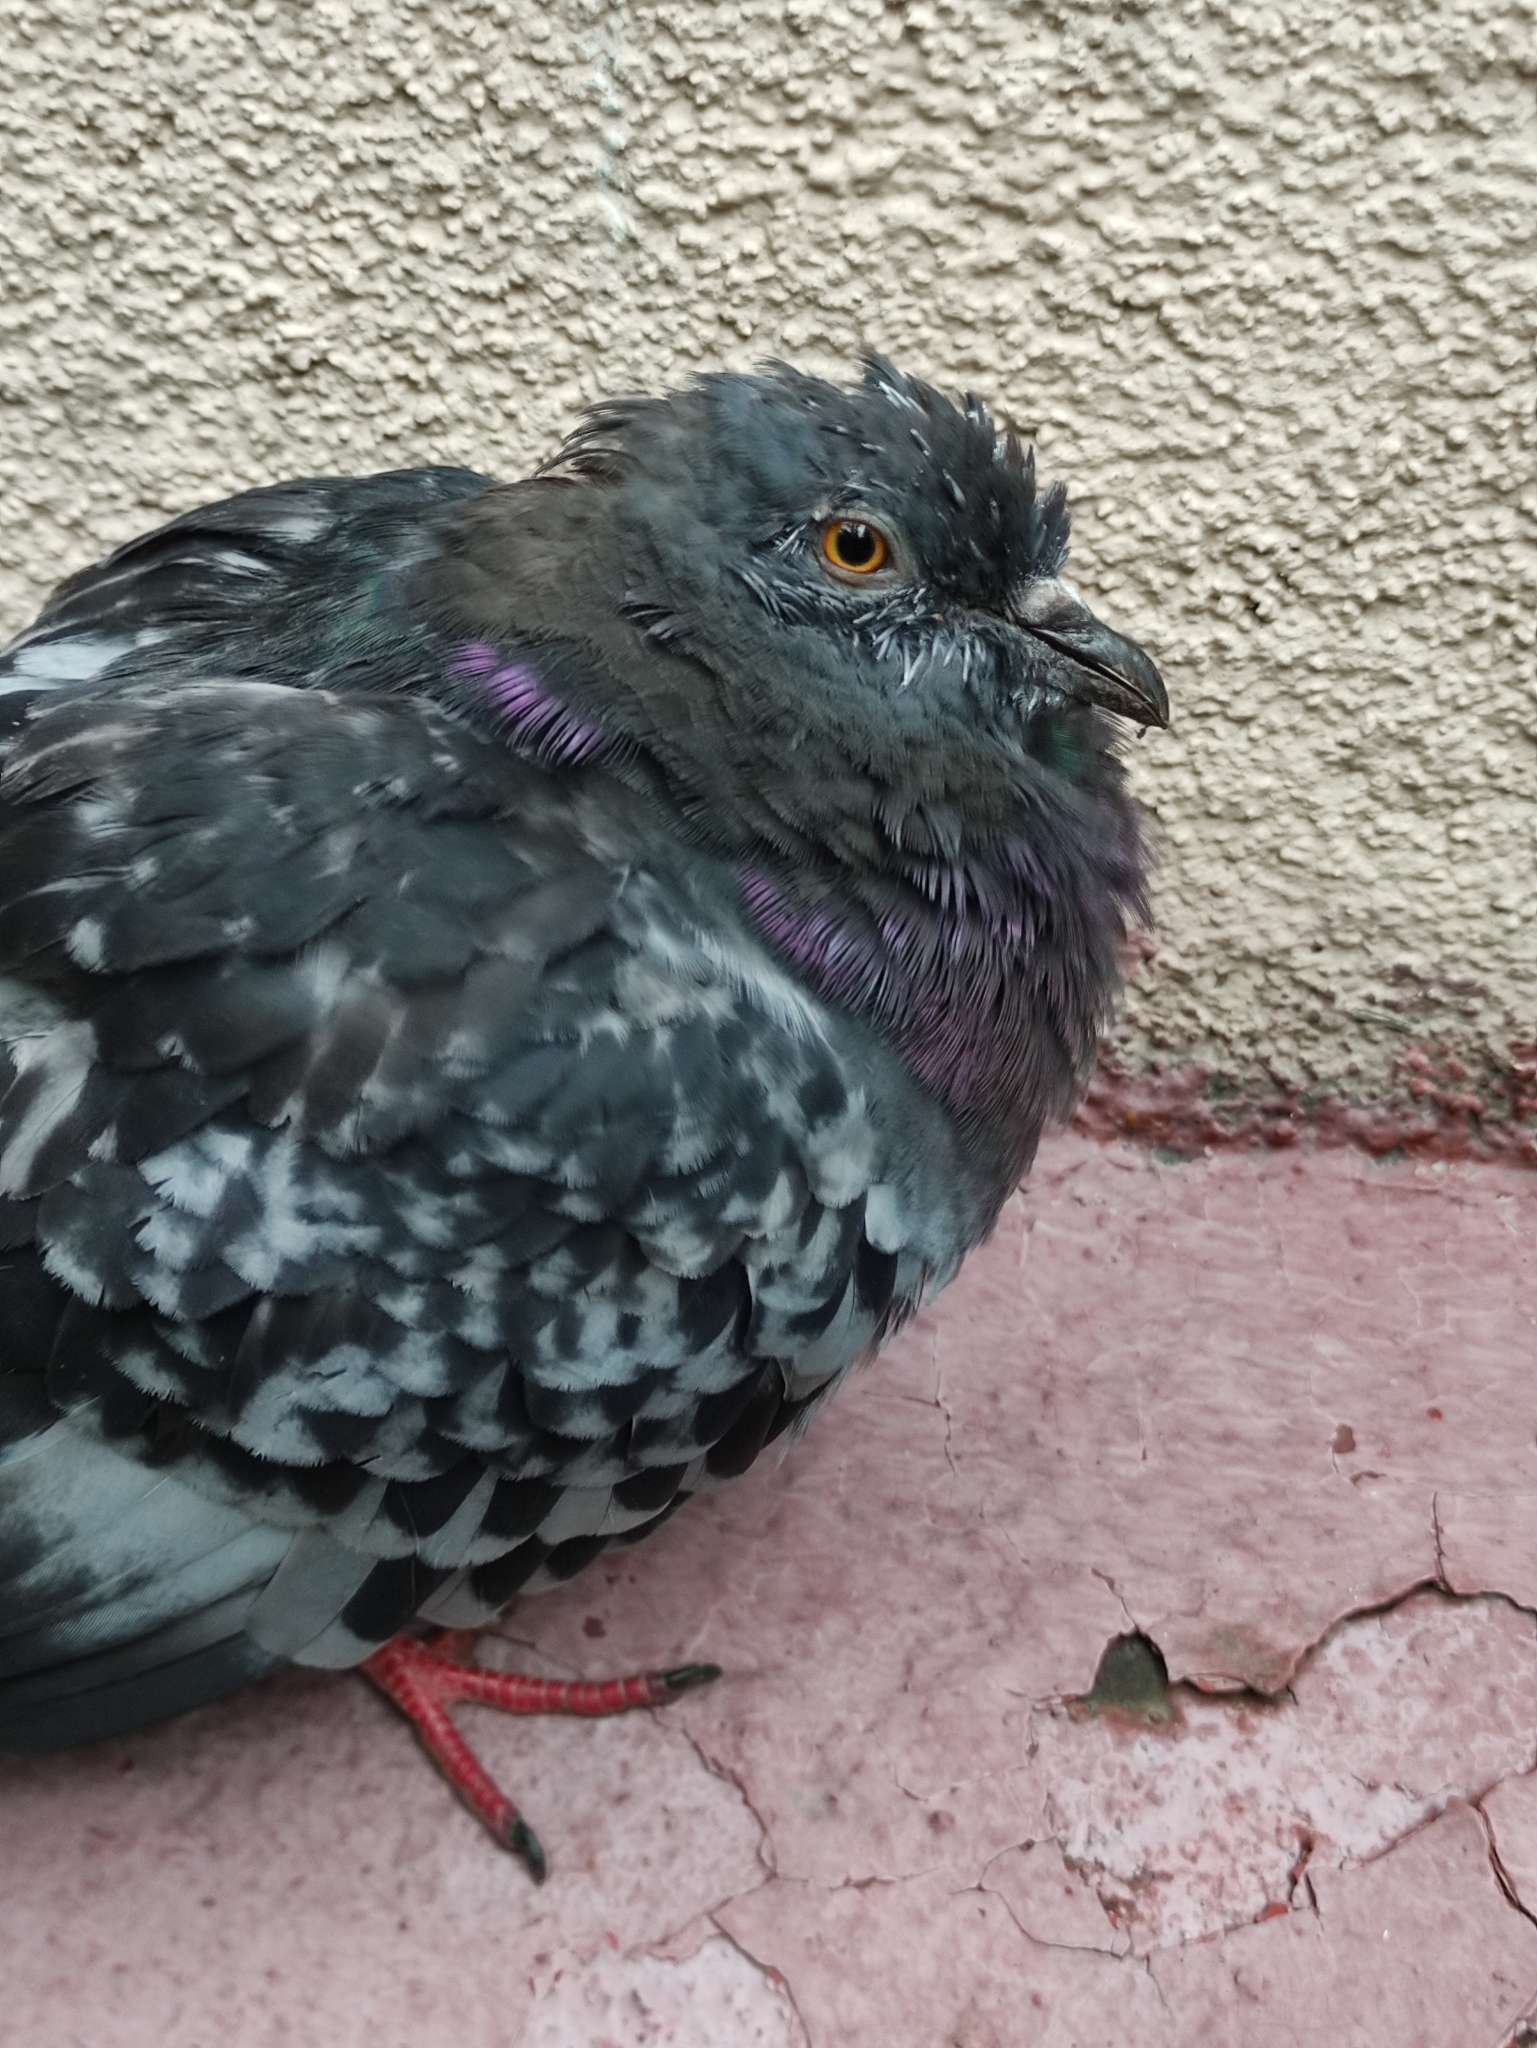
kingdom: Animalia
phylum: Chordata
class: Aves
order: Columbiformes
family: Columbidae
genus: Columba
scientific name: Columba livia
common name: Rock pigeon
